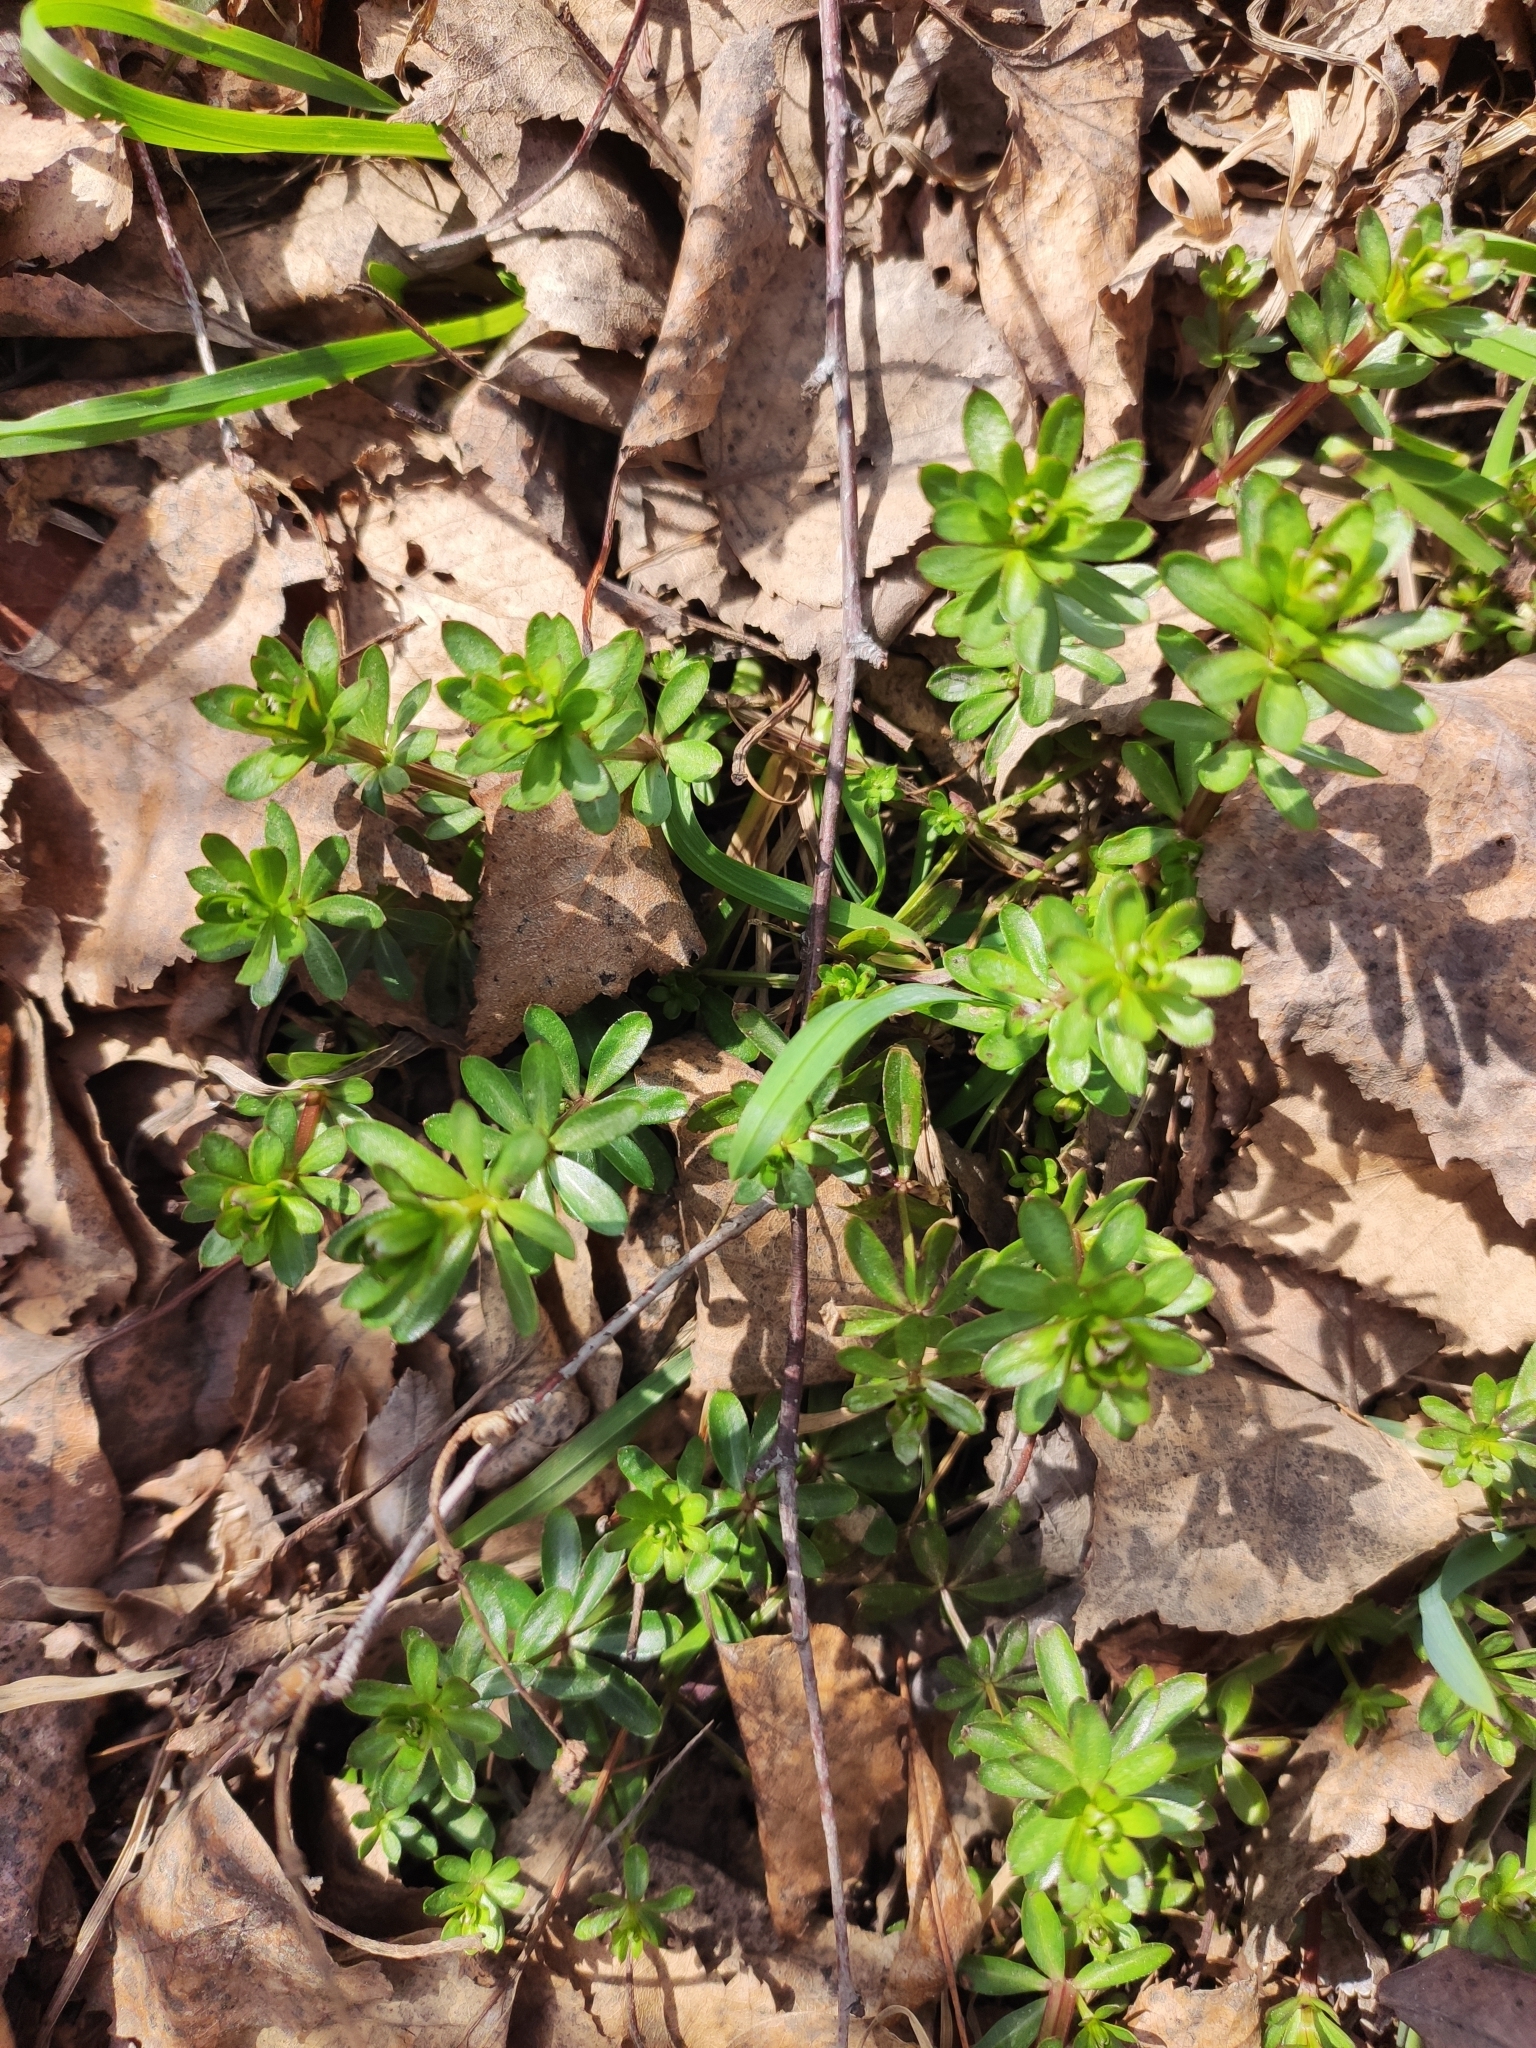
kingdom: Plantae
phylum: Tracheophyta
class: Magnoliopsida
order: Gentianales
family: Rubiaceae
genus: Galium
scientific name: Galium mollugo
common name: Hedge bedstraw
